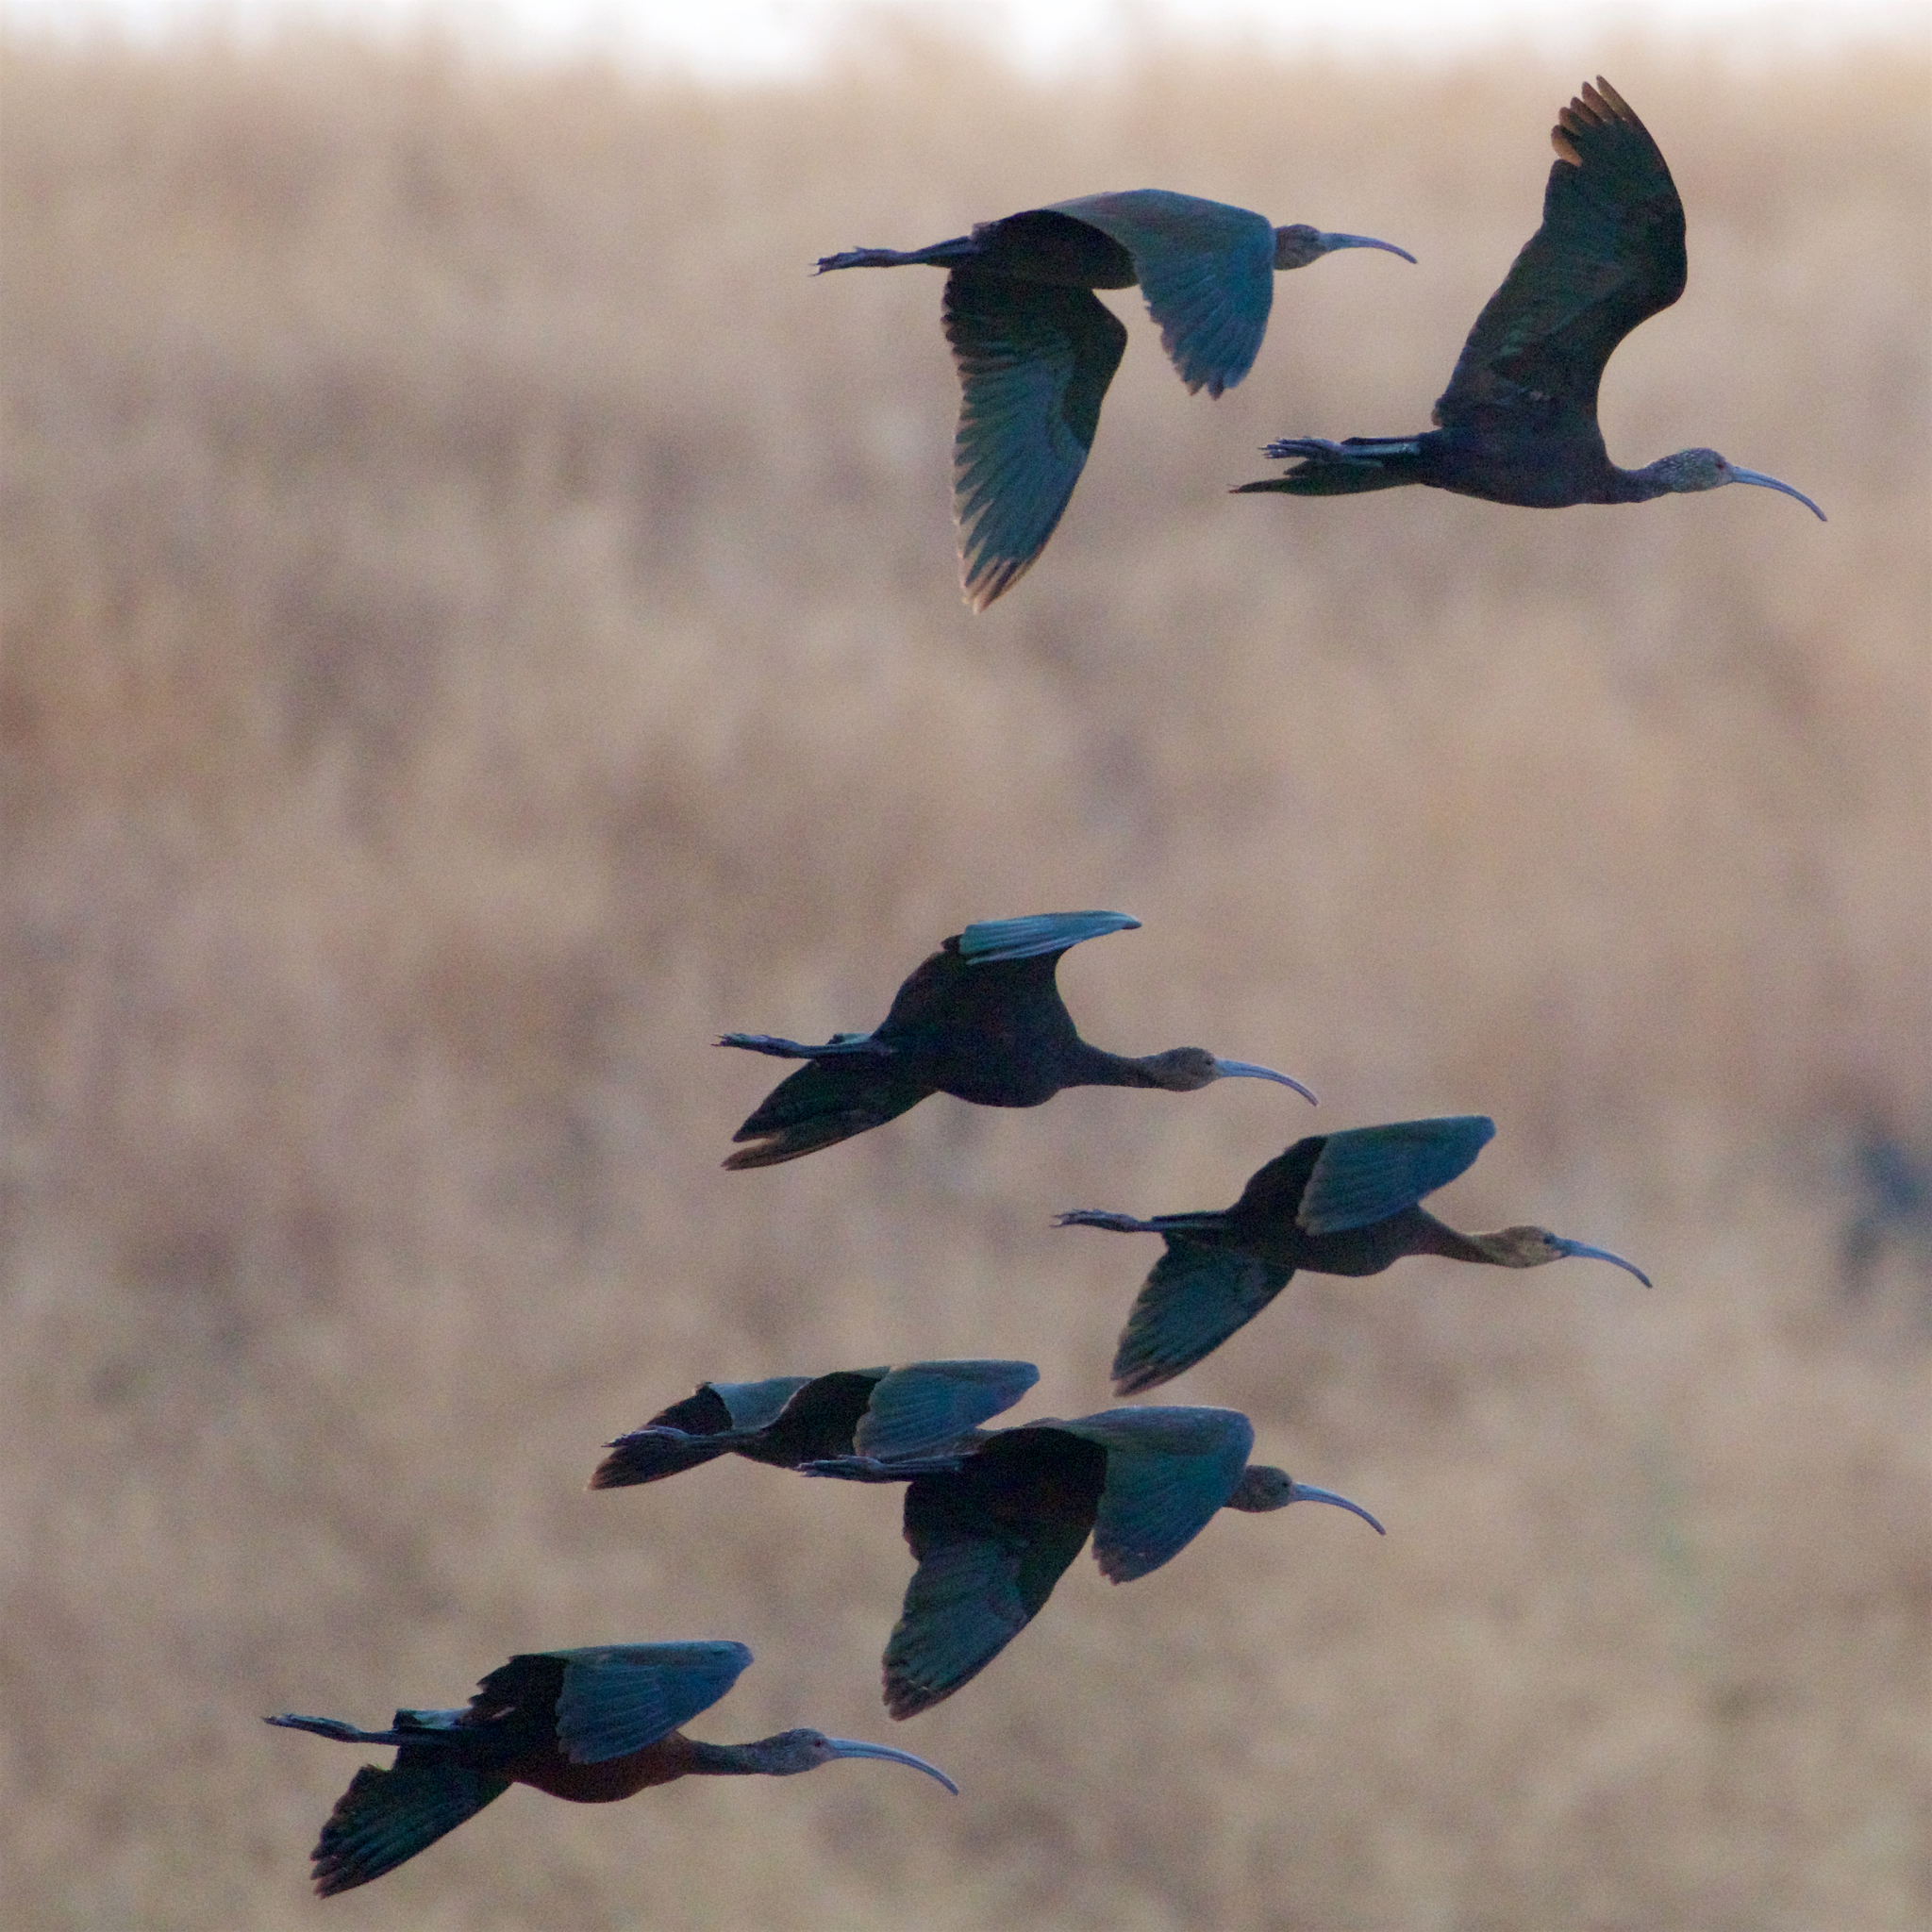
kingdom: Animalia
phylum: Chordata
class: Aves
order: Pelecaniformes
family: Threskiornithidae
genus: Plegadis
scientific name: Plegadis chihi
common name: White-faced ibis
